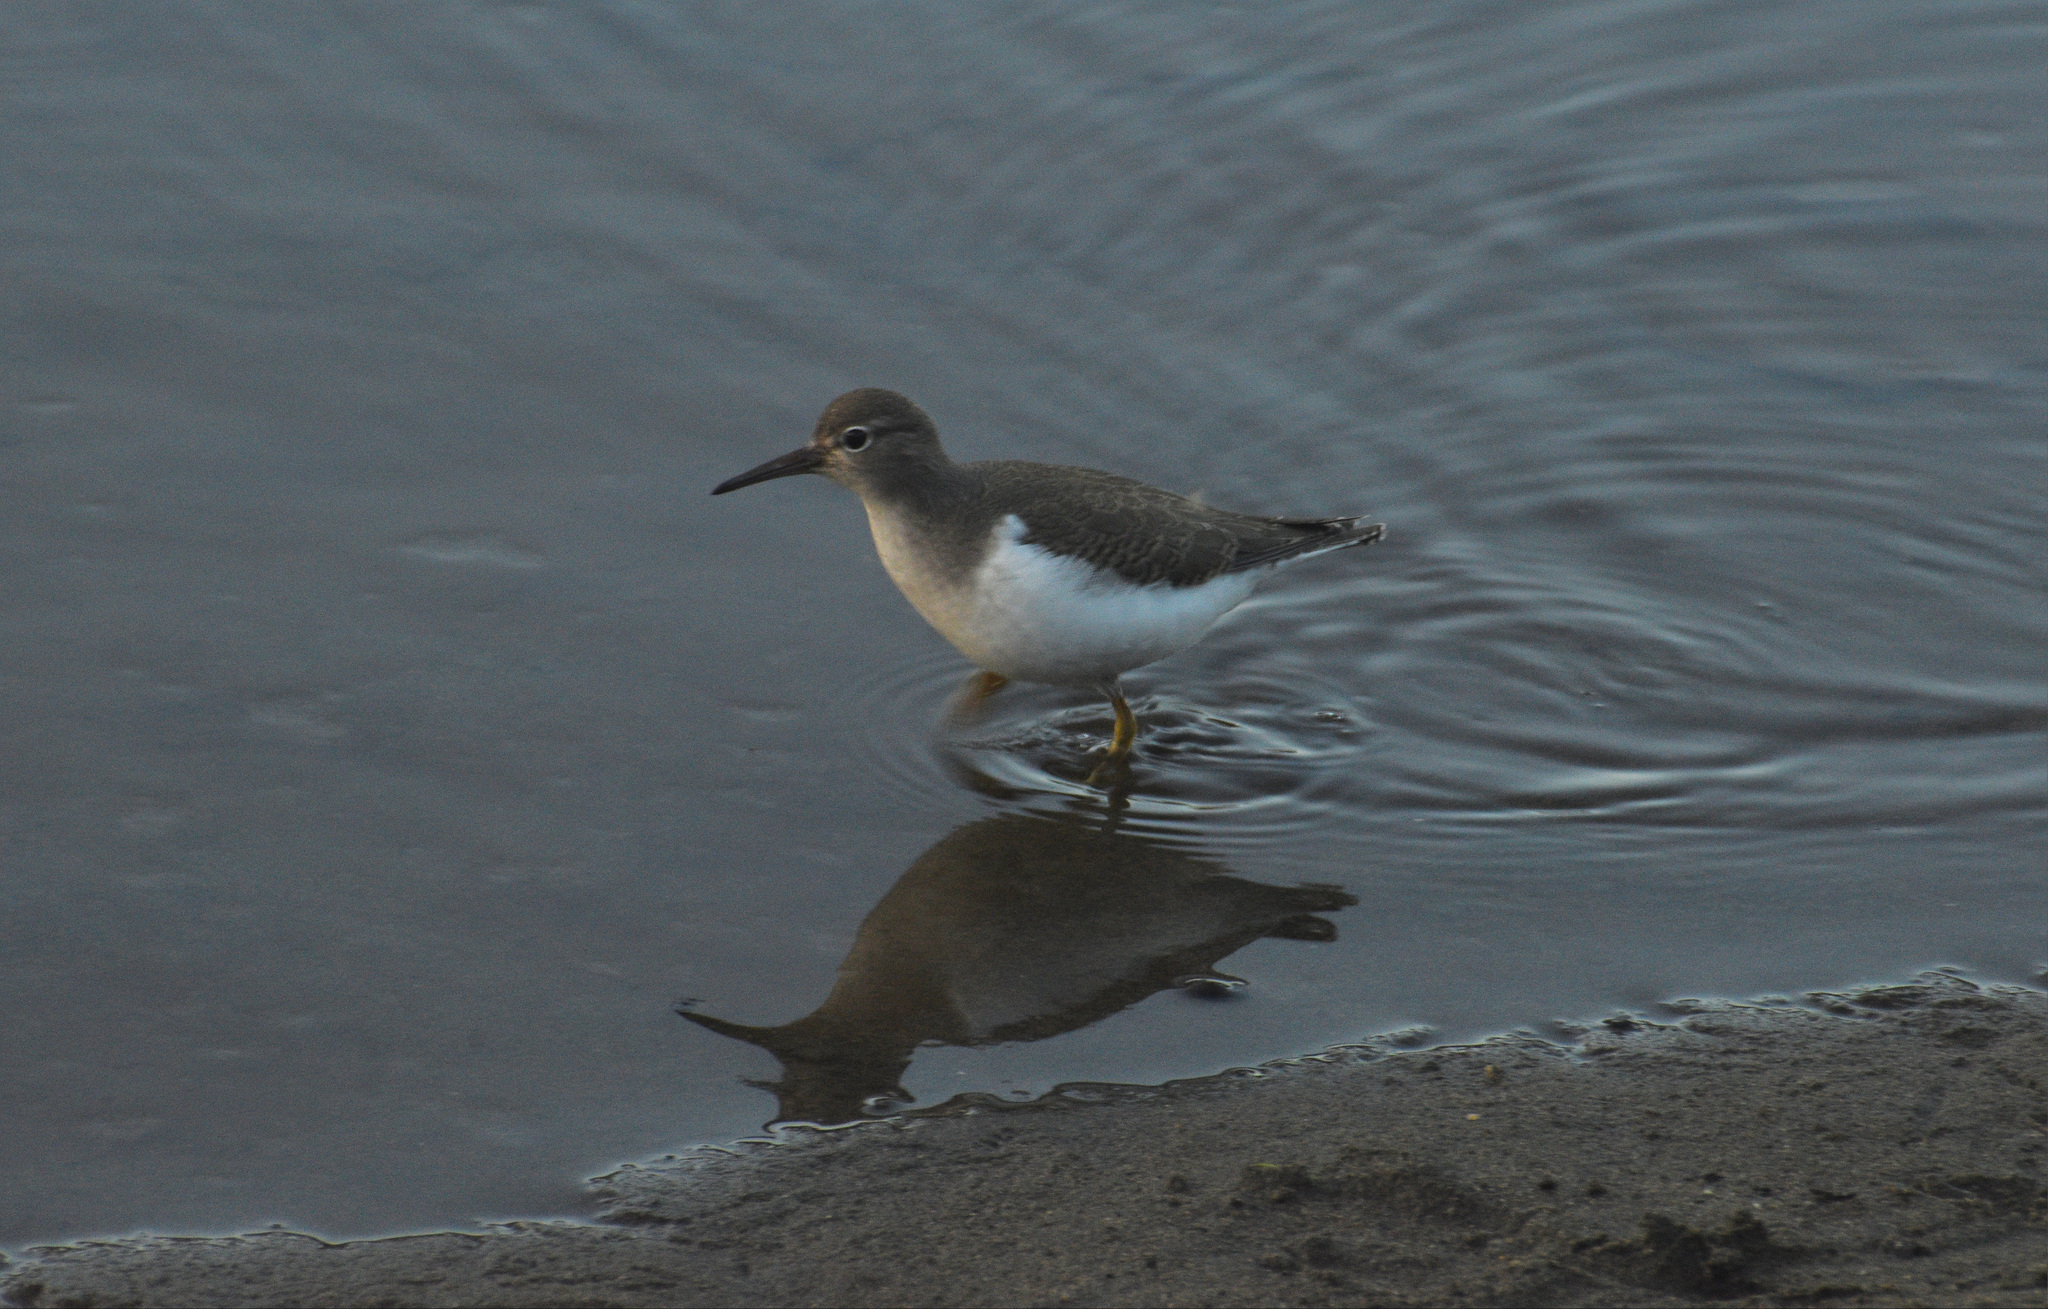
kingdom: Animalia
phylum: Chordata
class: Aves
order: Charadriiformes
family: Scolopacidae
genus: Actitis
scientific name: Actitis macularius
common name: Spotted sandpiper
